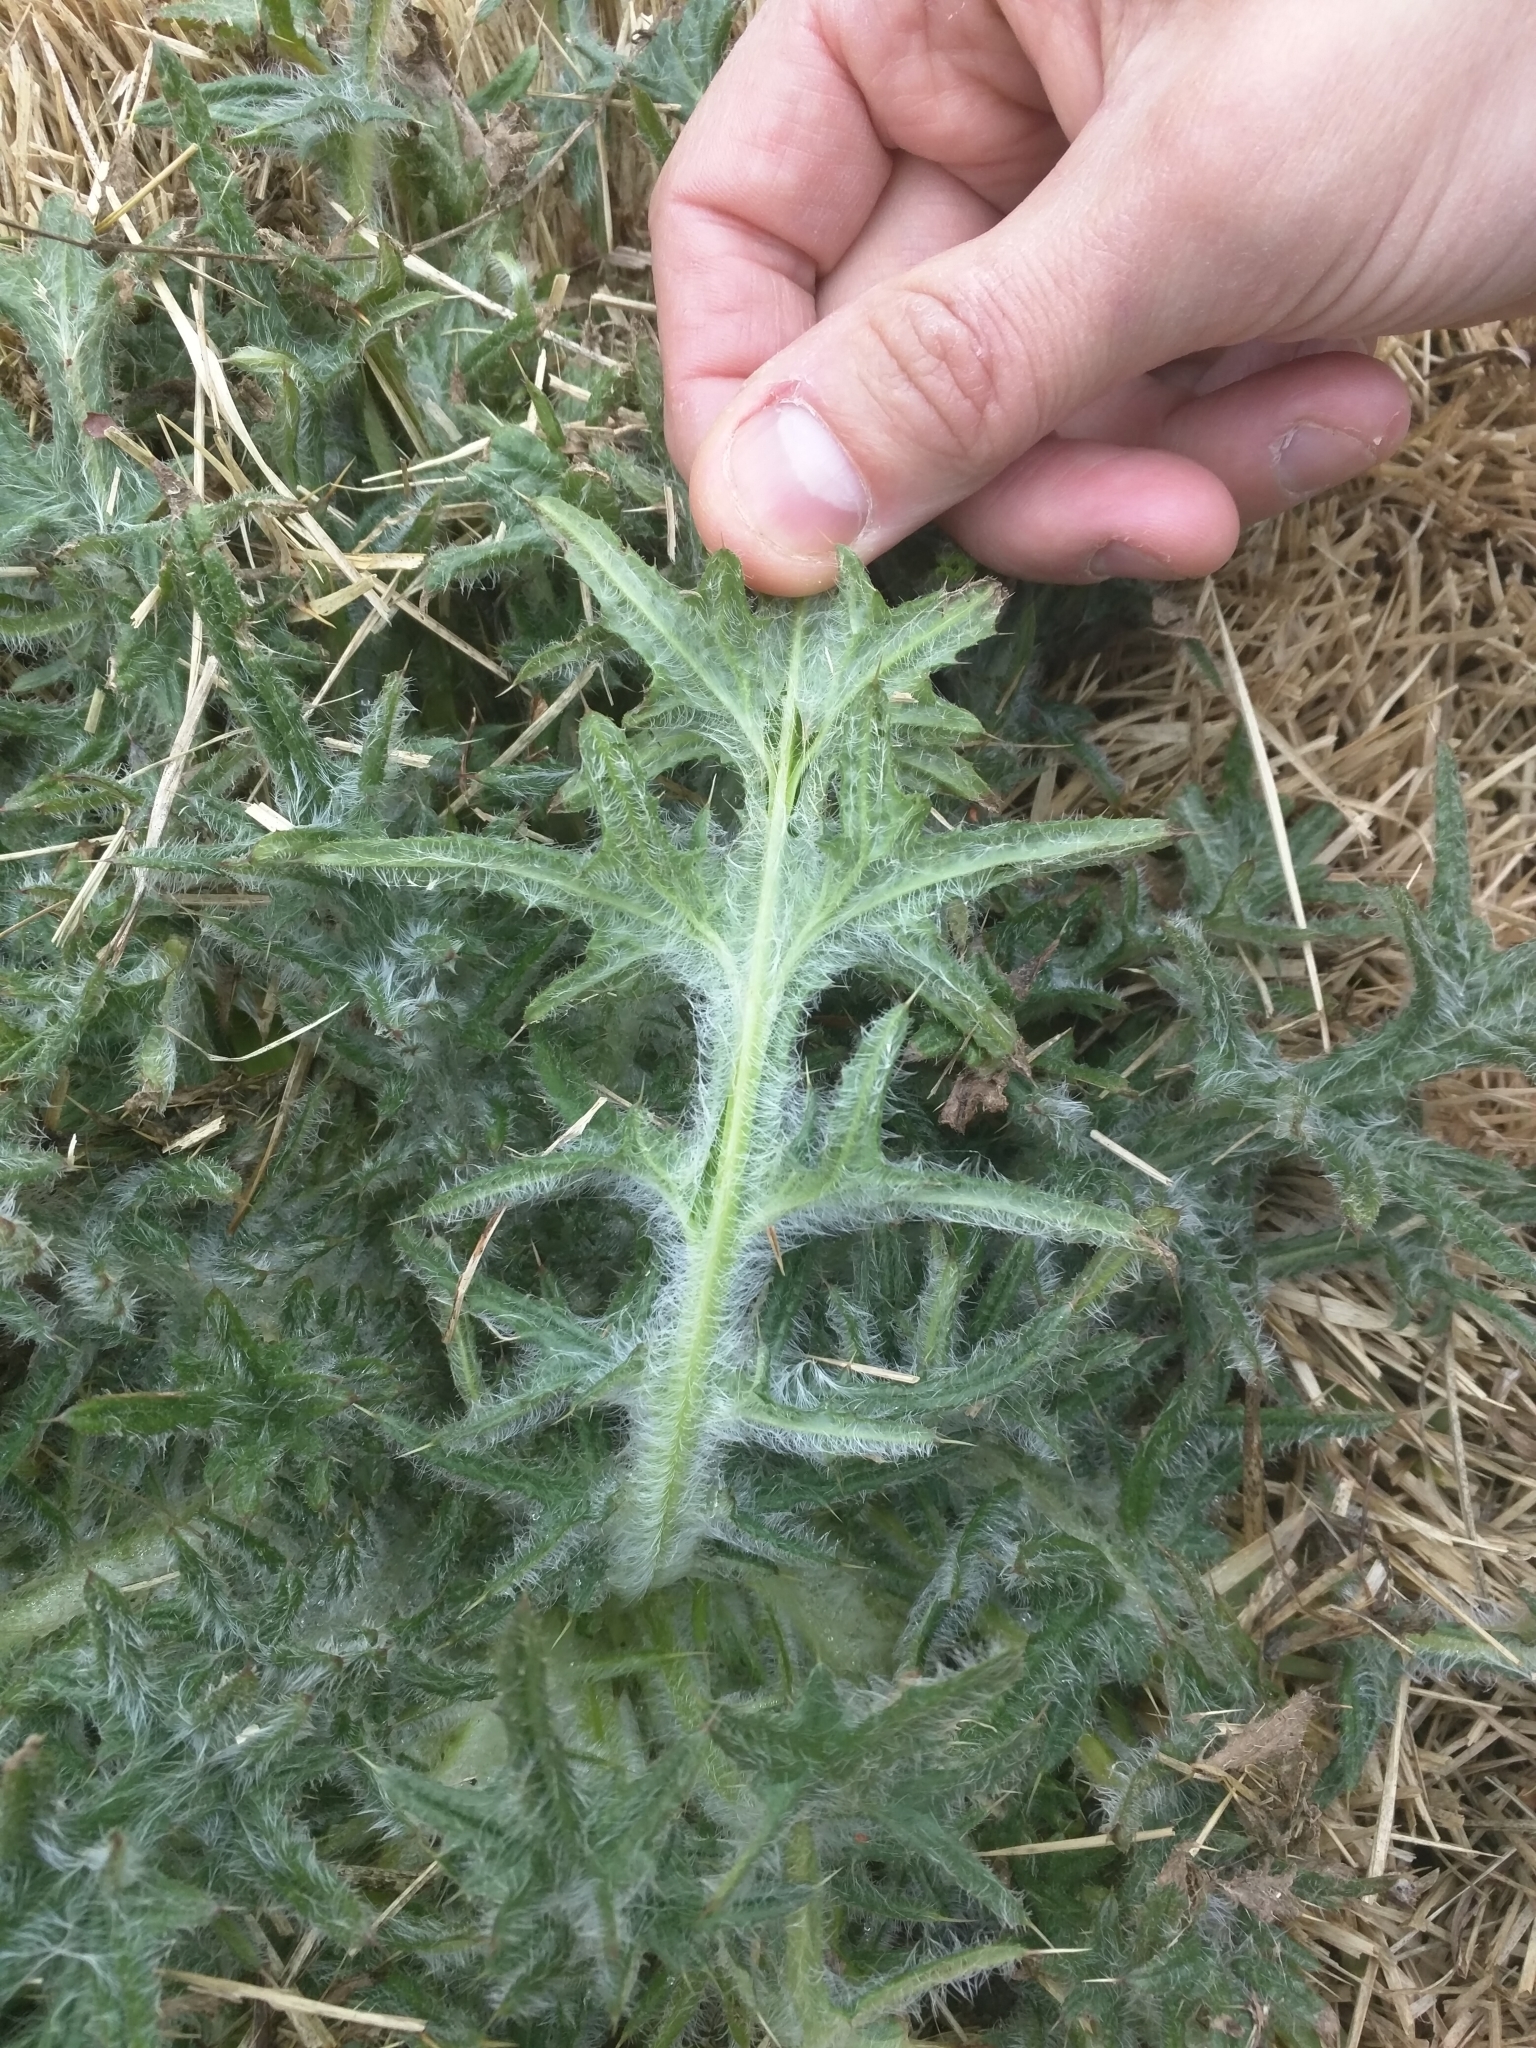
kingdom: Plantae
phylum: Tracheophyta
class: Magnoliopsida
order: Asterales
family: Asteraceae
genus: Cirsium
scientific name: Cirsium vulgare
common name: Bull thistle
